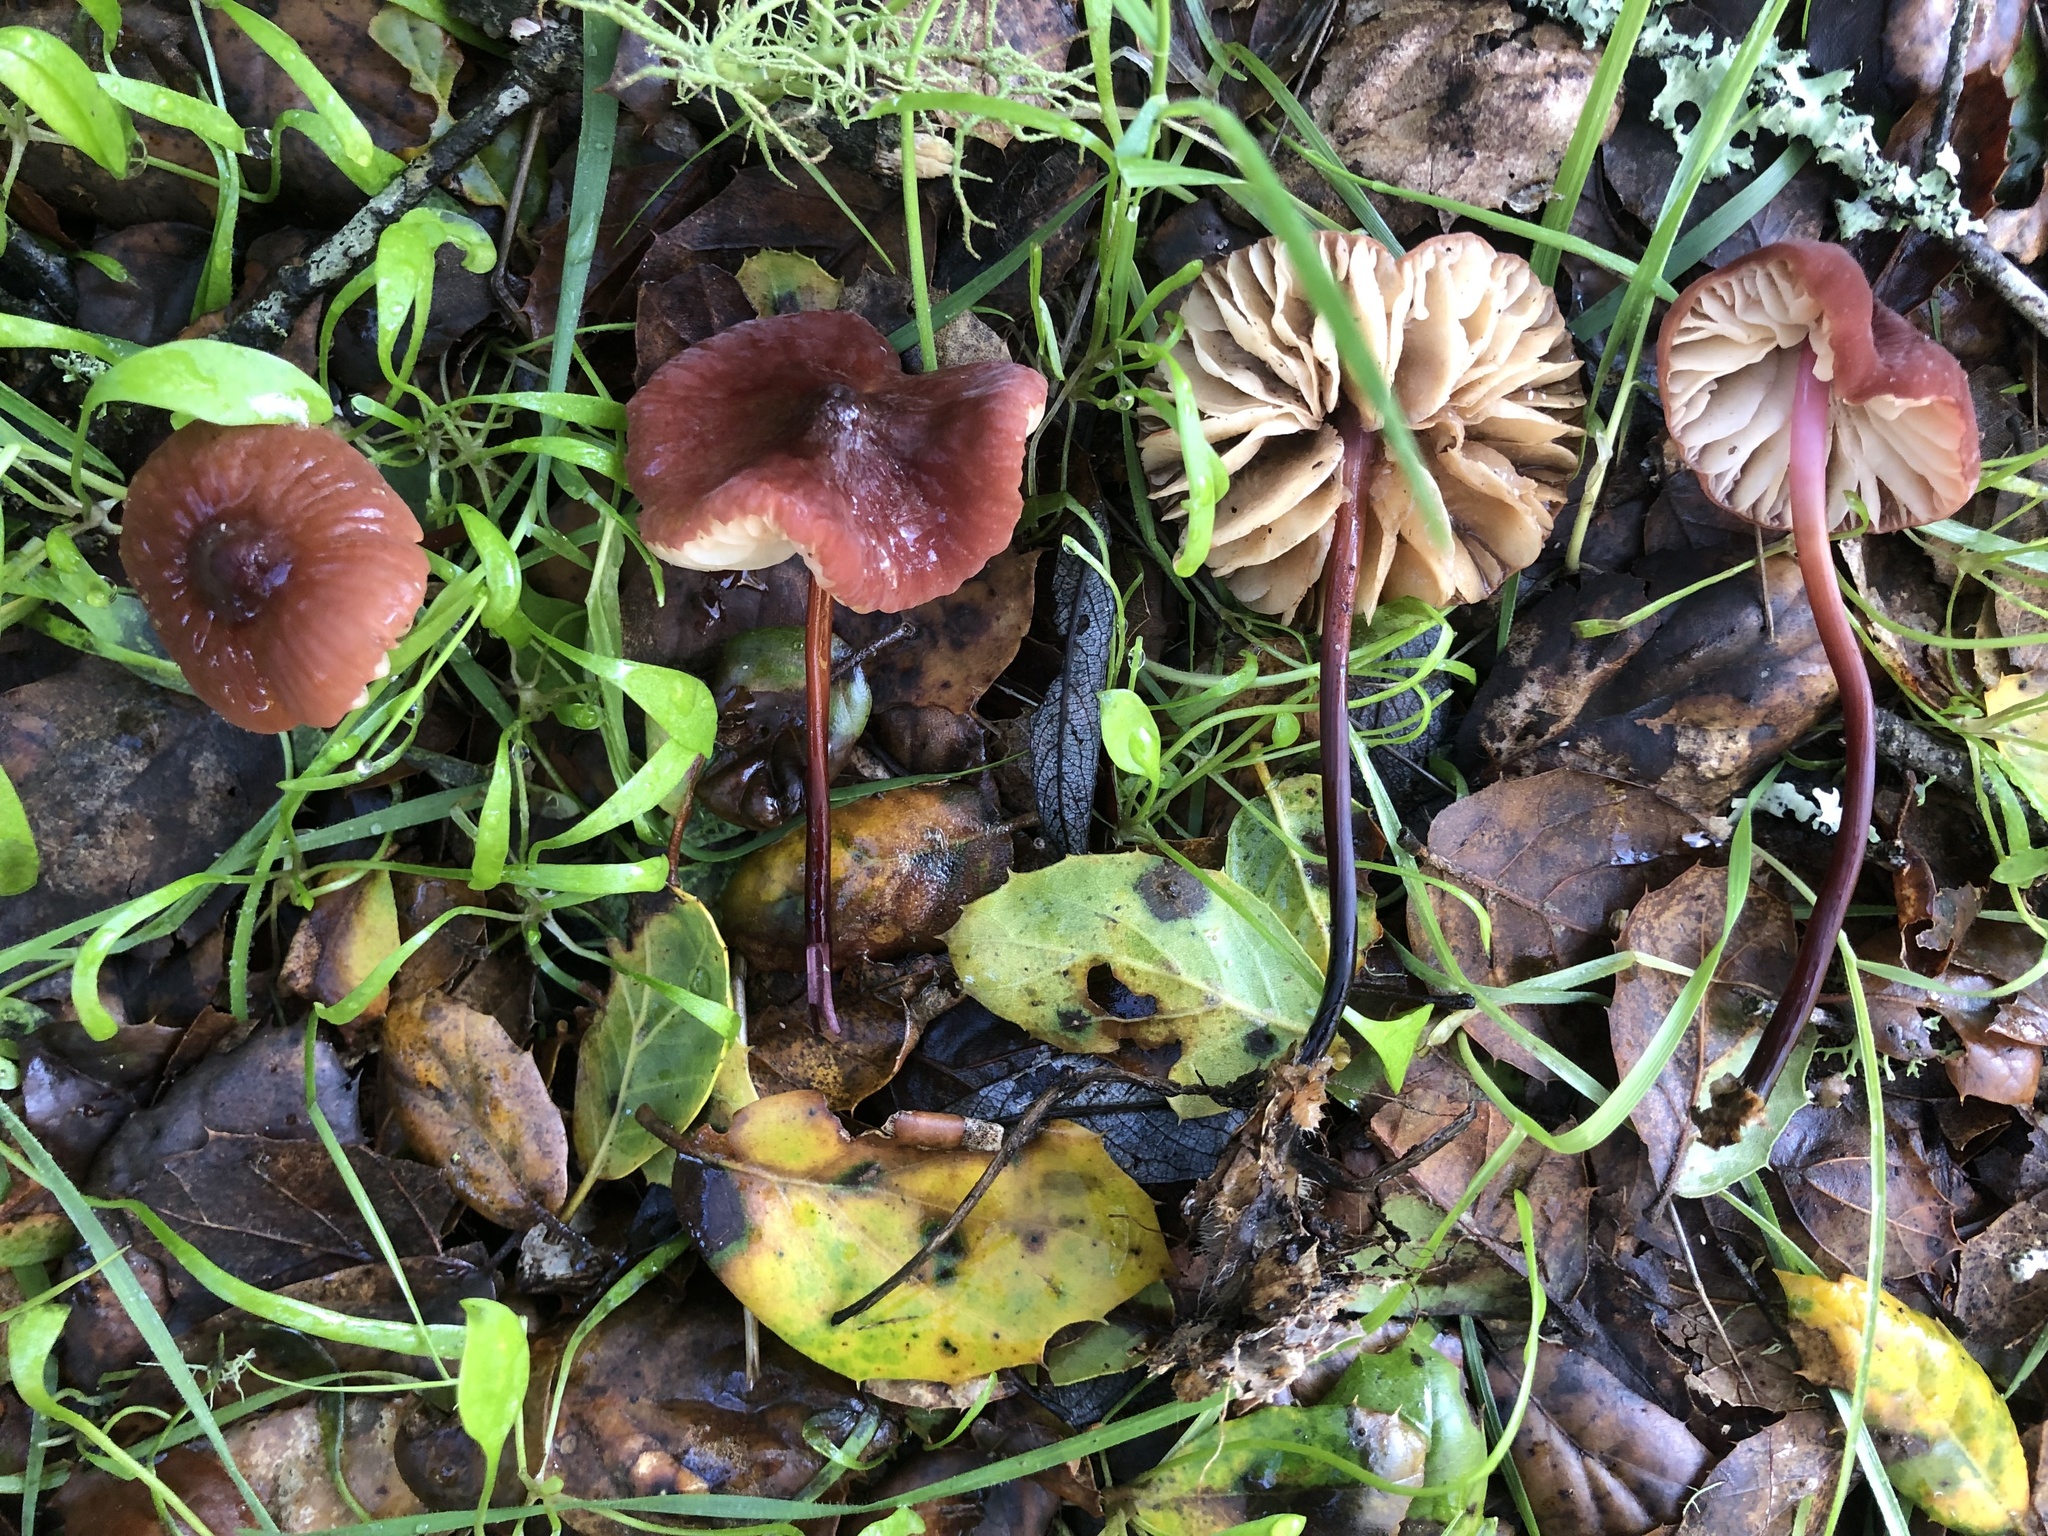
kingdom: Fungi
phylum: Basidiomycota
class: Agaricomycetes
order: Agaricales
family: Marasmiaceae
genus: Marasmius
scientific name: Marasmius plicatulus
